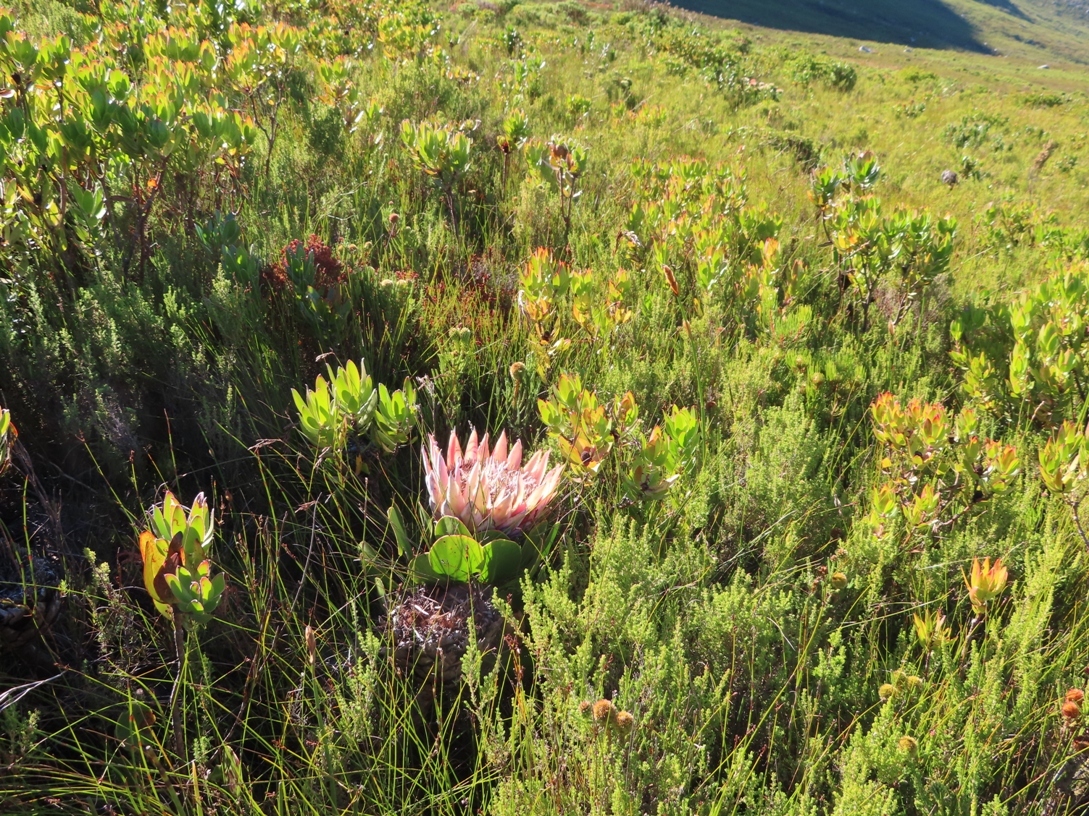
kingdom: Plantae
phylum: Tracheophyta
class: Magnoliopsida
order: Proteales
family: Proteaceae
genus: Protea
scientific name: Protea cynaroides
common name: King protea
